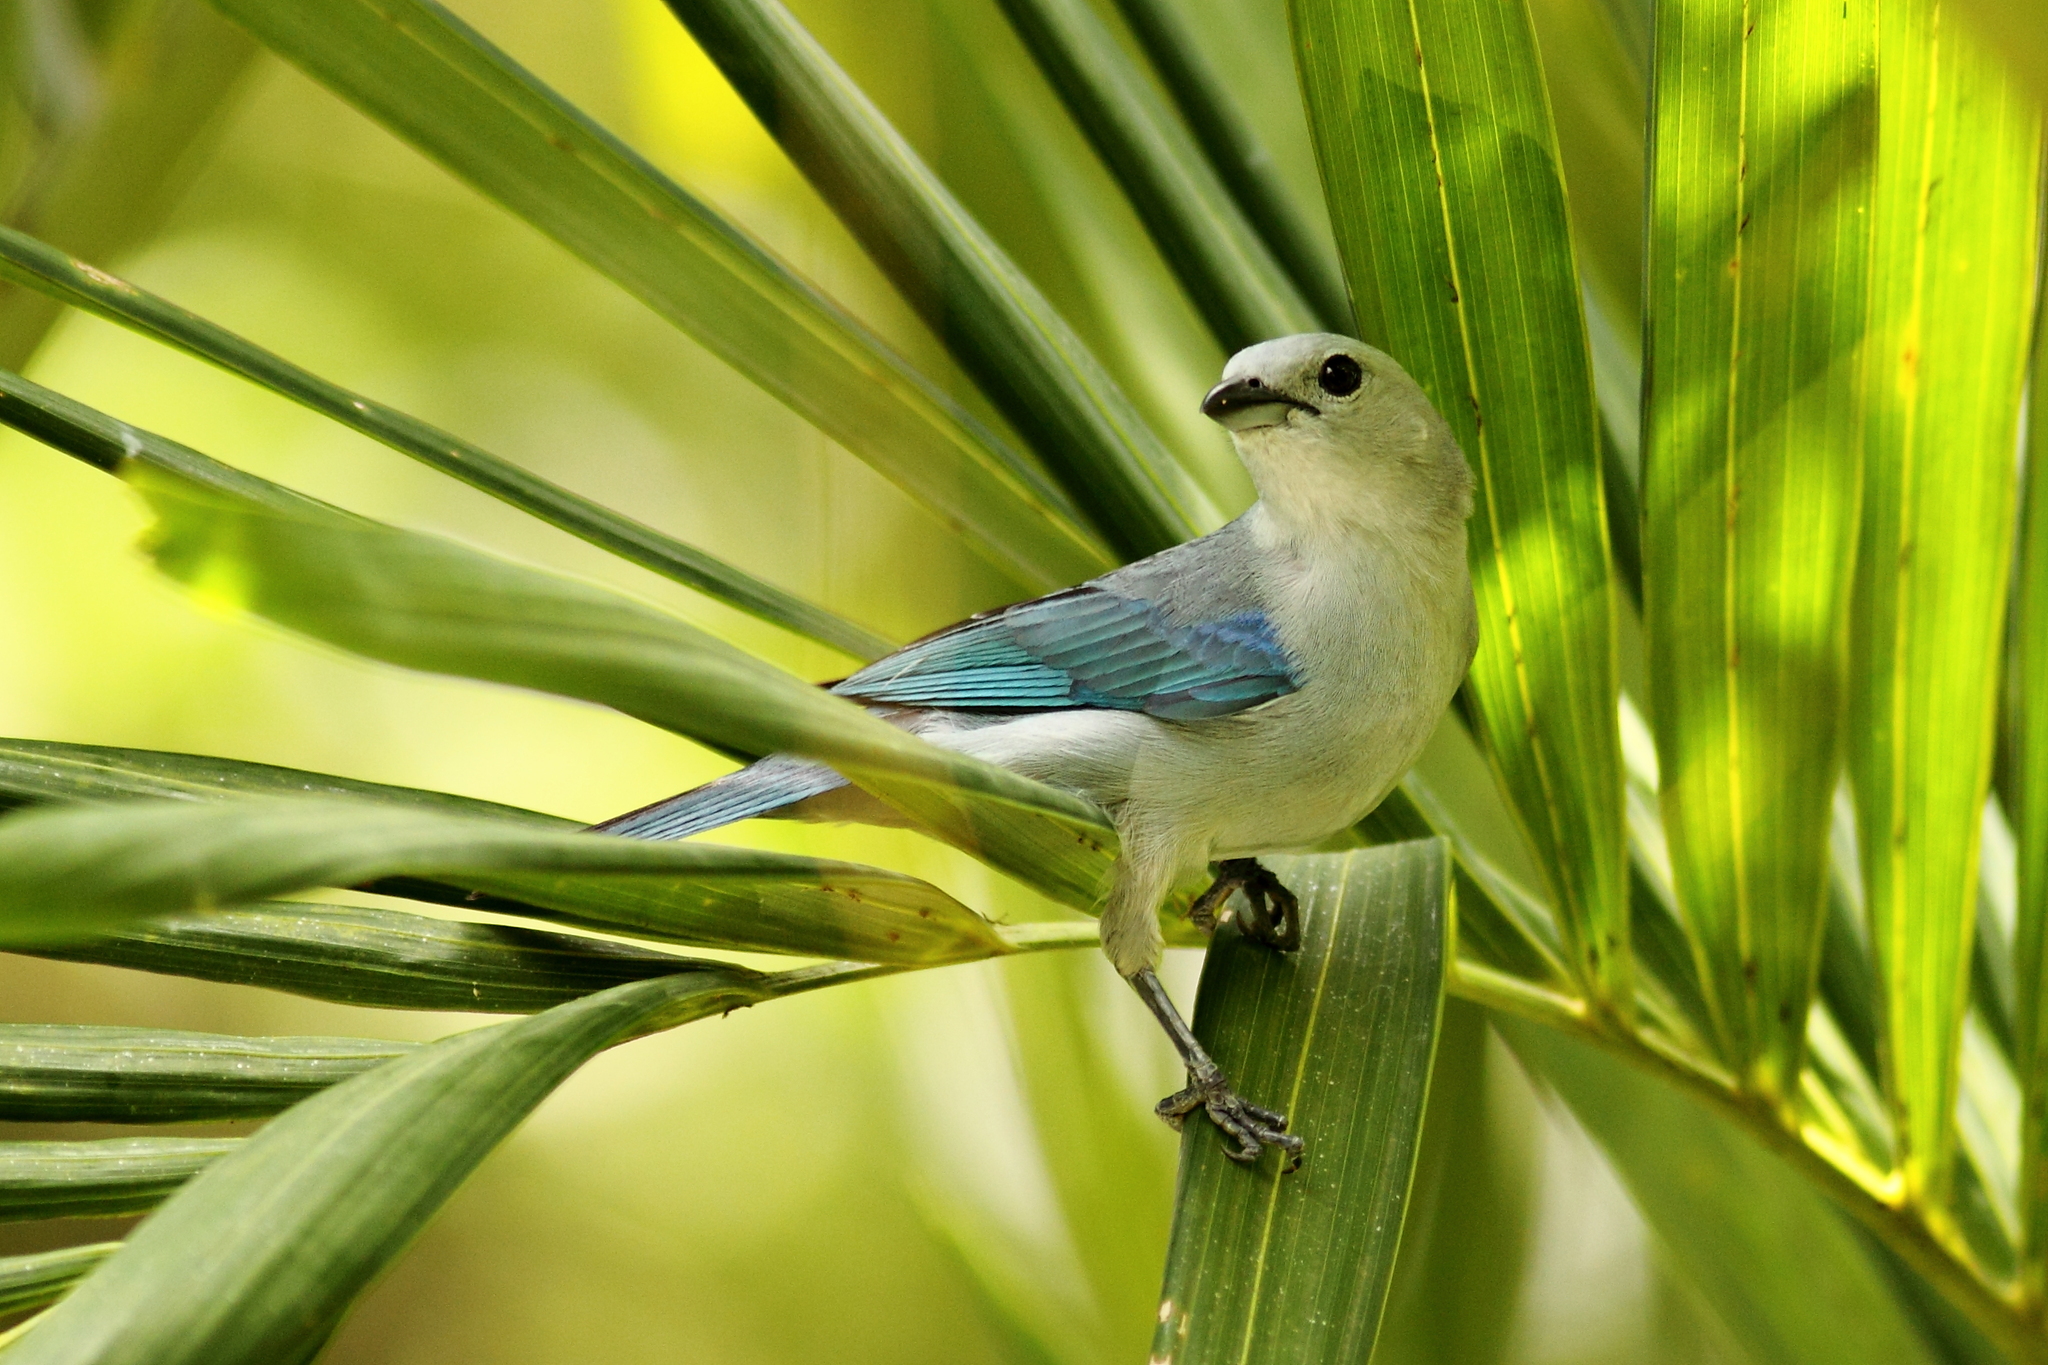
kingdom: Animalia
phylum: Chordata
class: Aves
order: Passeriformes
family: Thraupidae
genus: Thraupis
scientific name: Thraupis episcopus
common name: Blue-grey tanager
